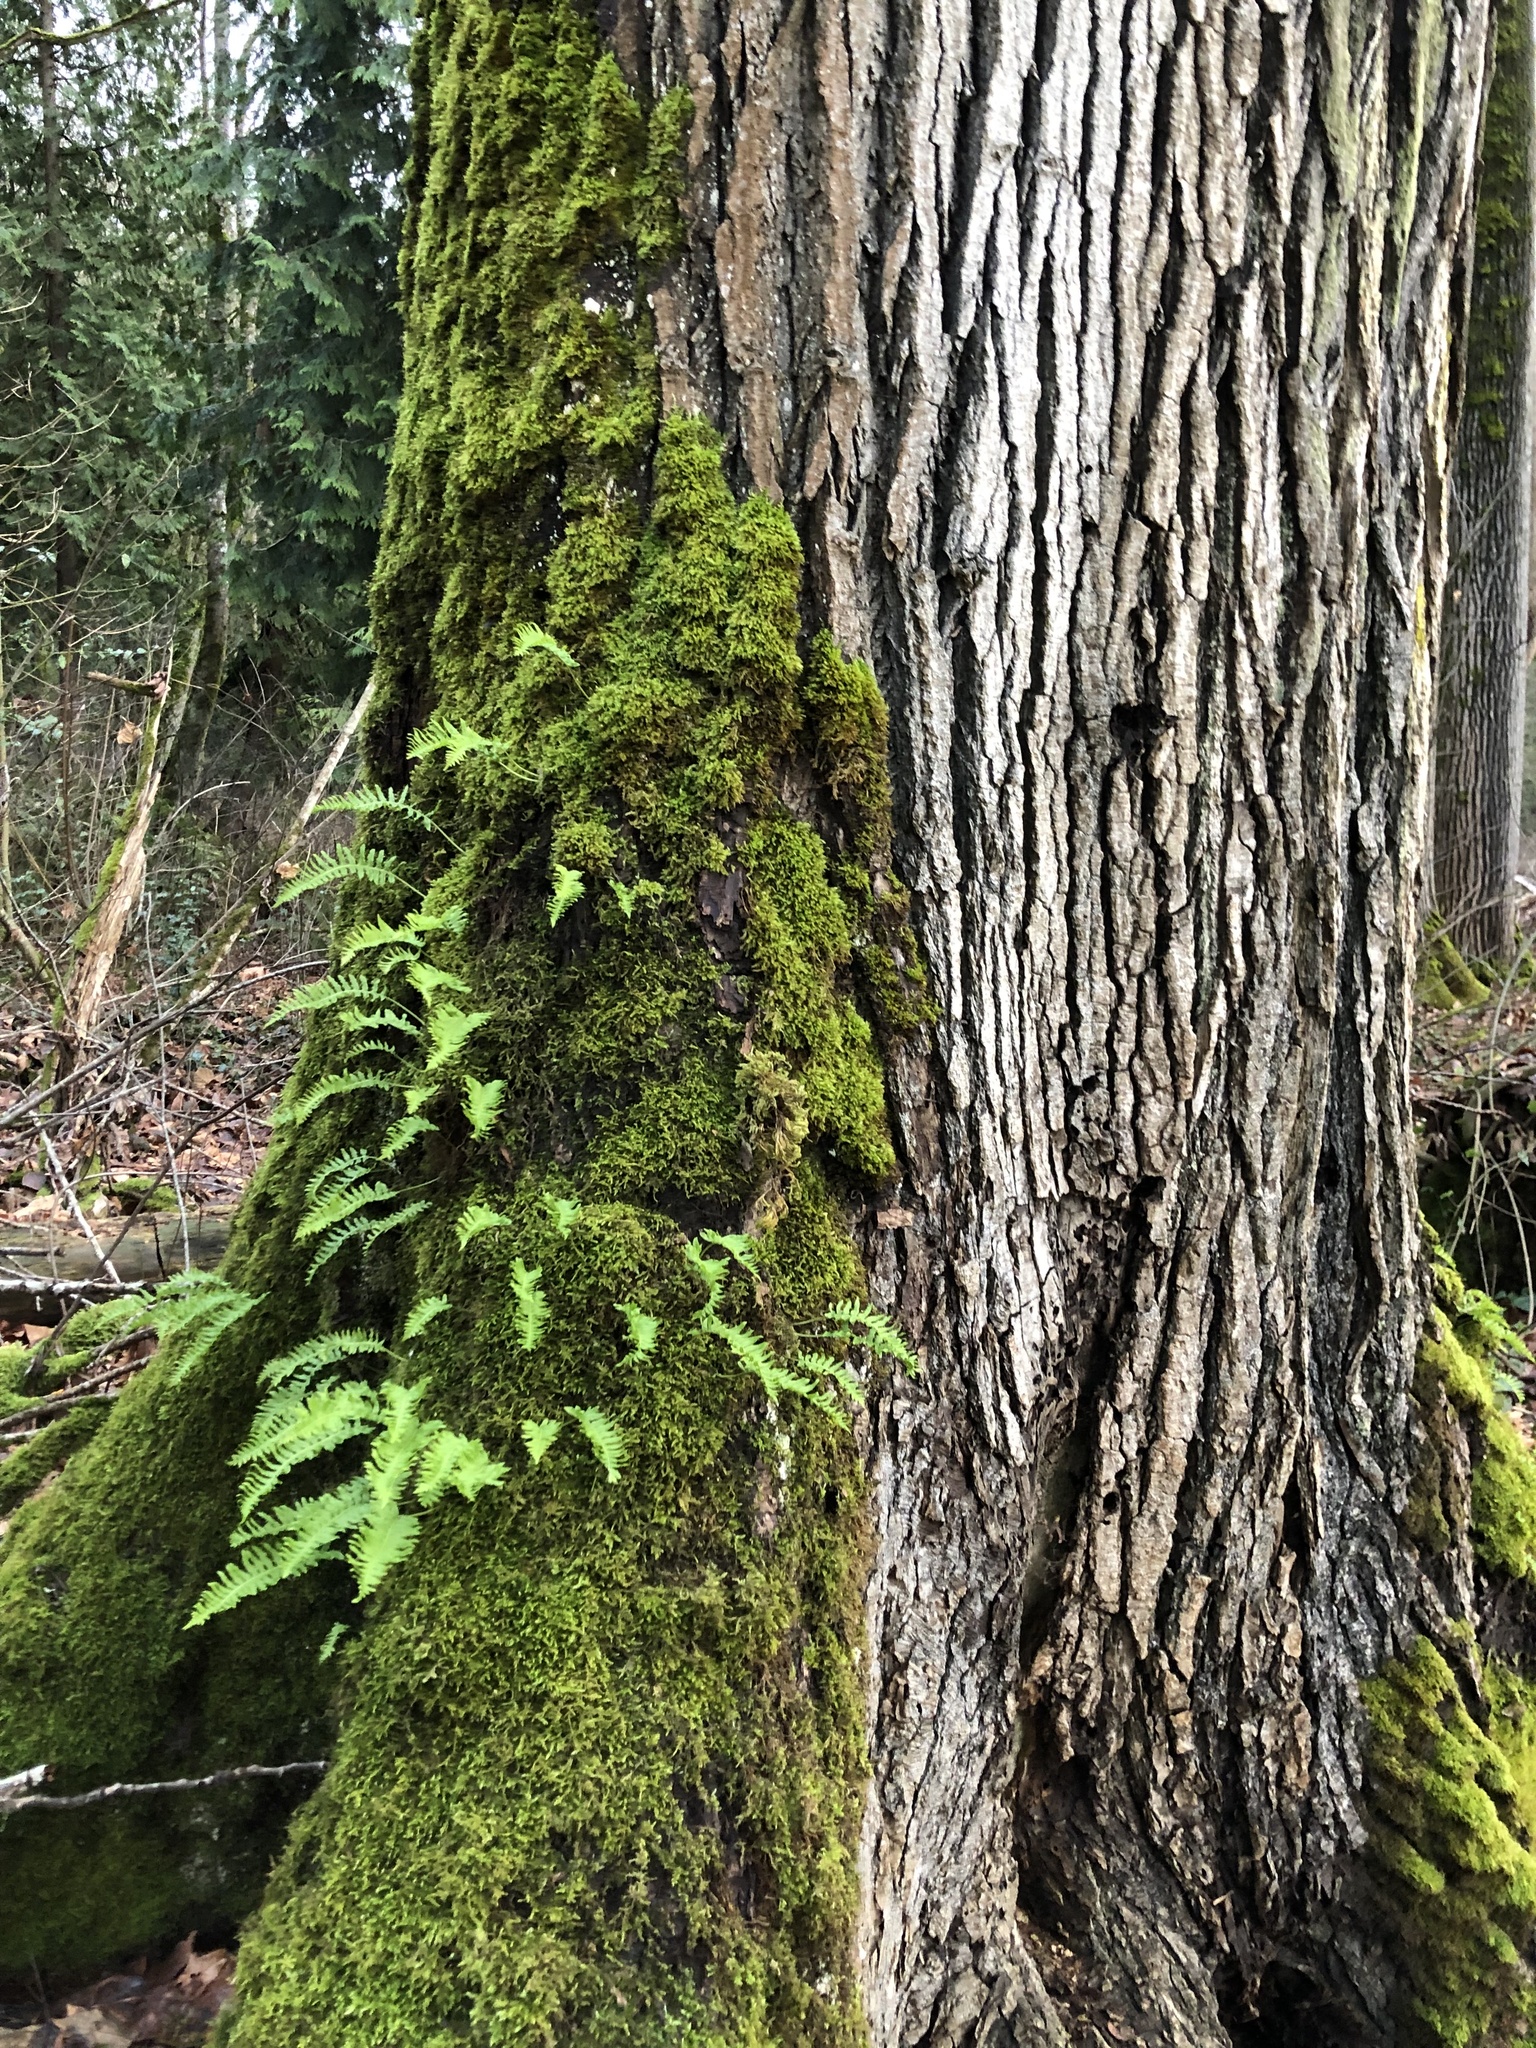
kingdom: Plantae
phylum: Tracheophyta
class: Polypodiopsida
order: Polypodiales
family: Polypodiaceae
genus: Polypodium
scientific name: Polypodium glycyrrhiza
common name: Licorice fern
